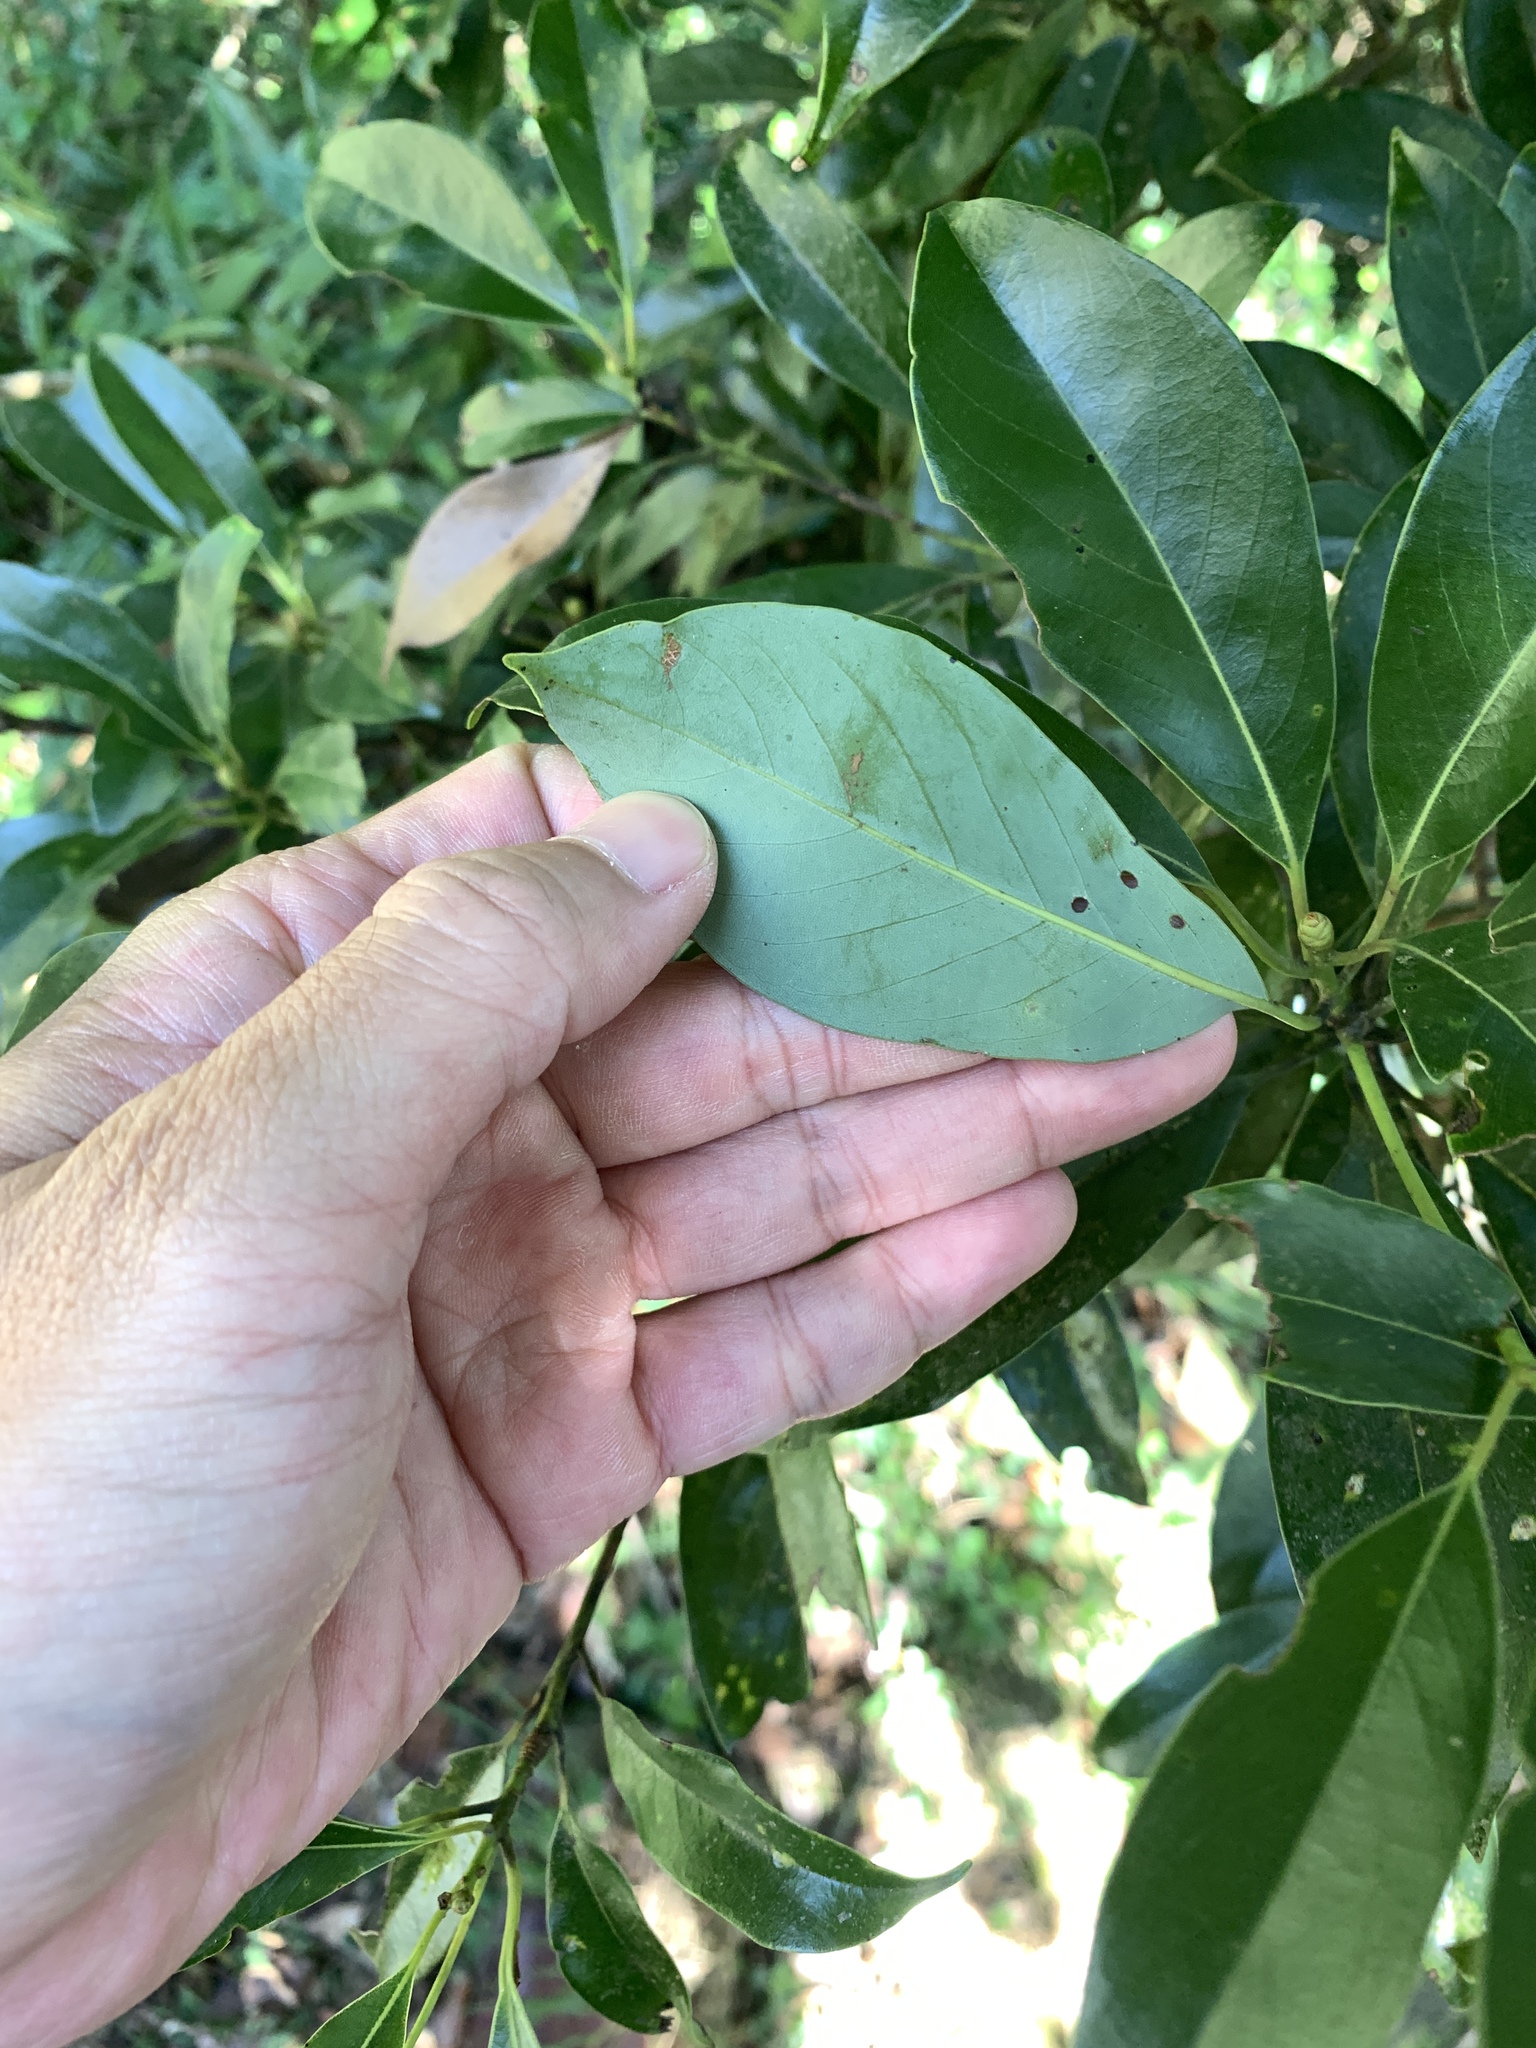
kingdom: Plantae
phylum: Tracheophyta
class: Magnoliopsida
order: Laurales
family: Lauraceae
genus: Machilus
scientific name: Machilus thunbergii
